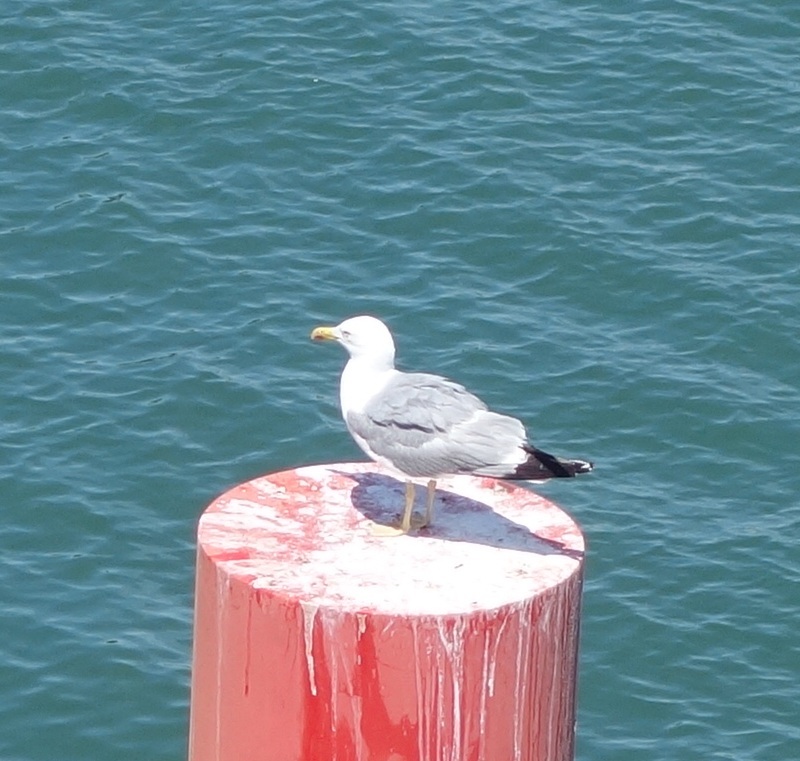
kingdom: Animalia
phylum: Chordata
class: Aves
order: Charadriiformes
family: Laridae
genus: Larus
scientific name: Larus michahellis
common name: Yellow-legged gull
